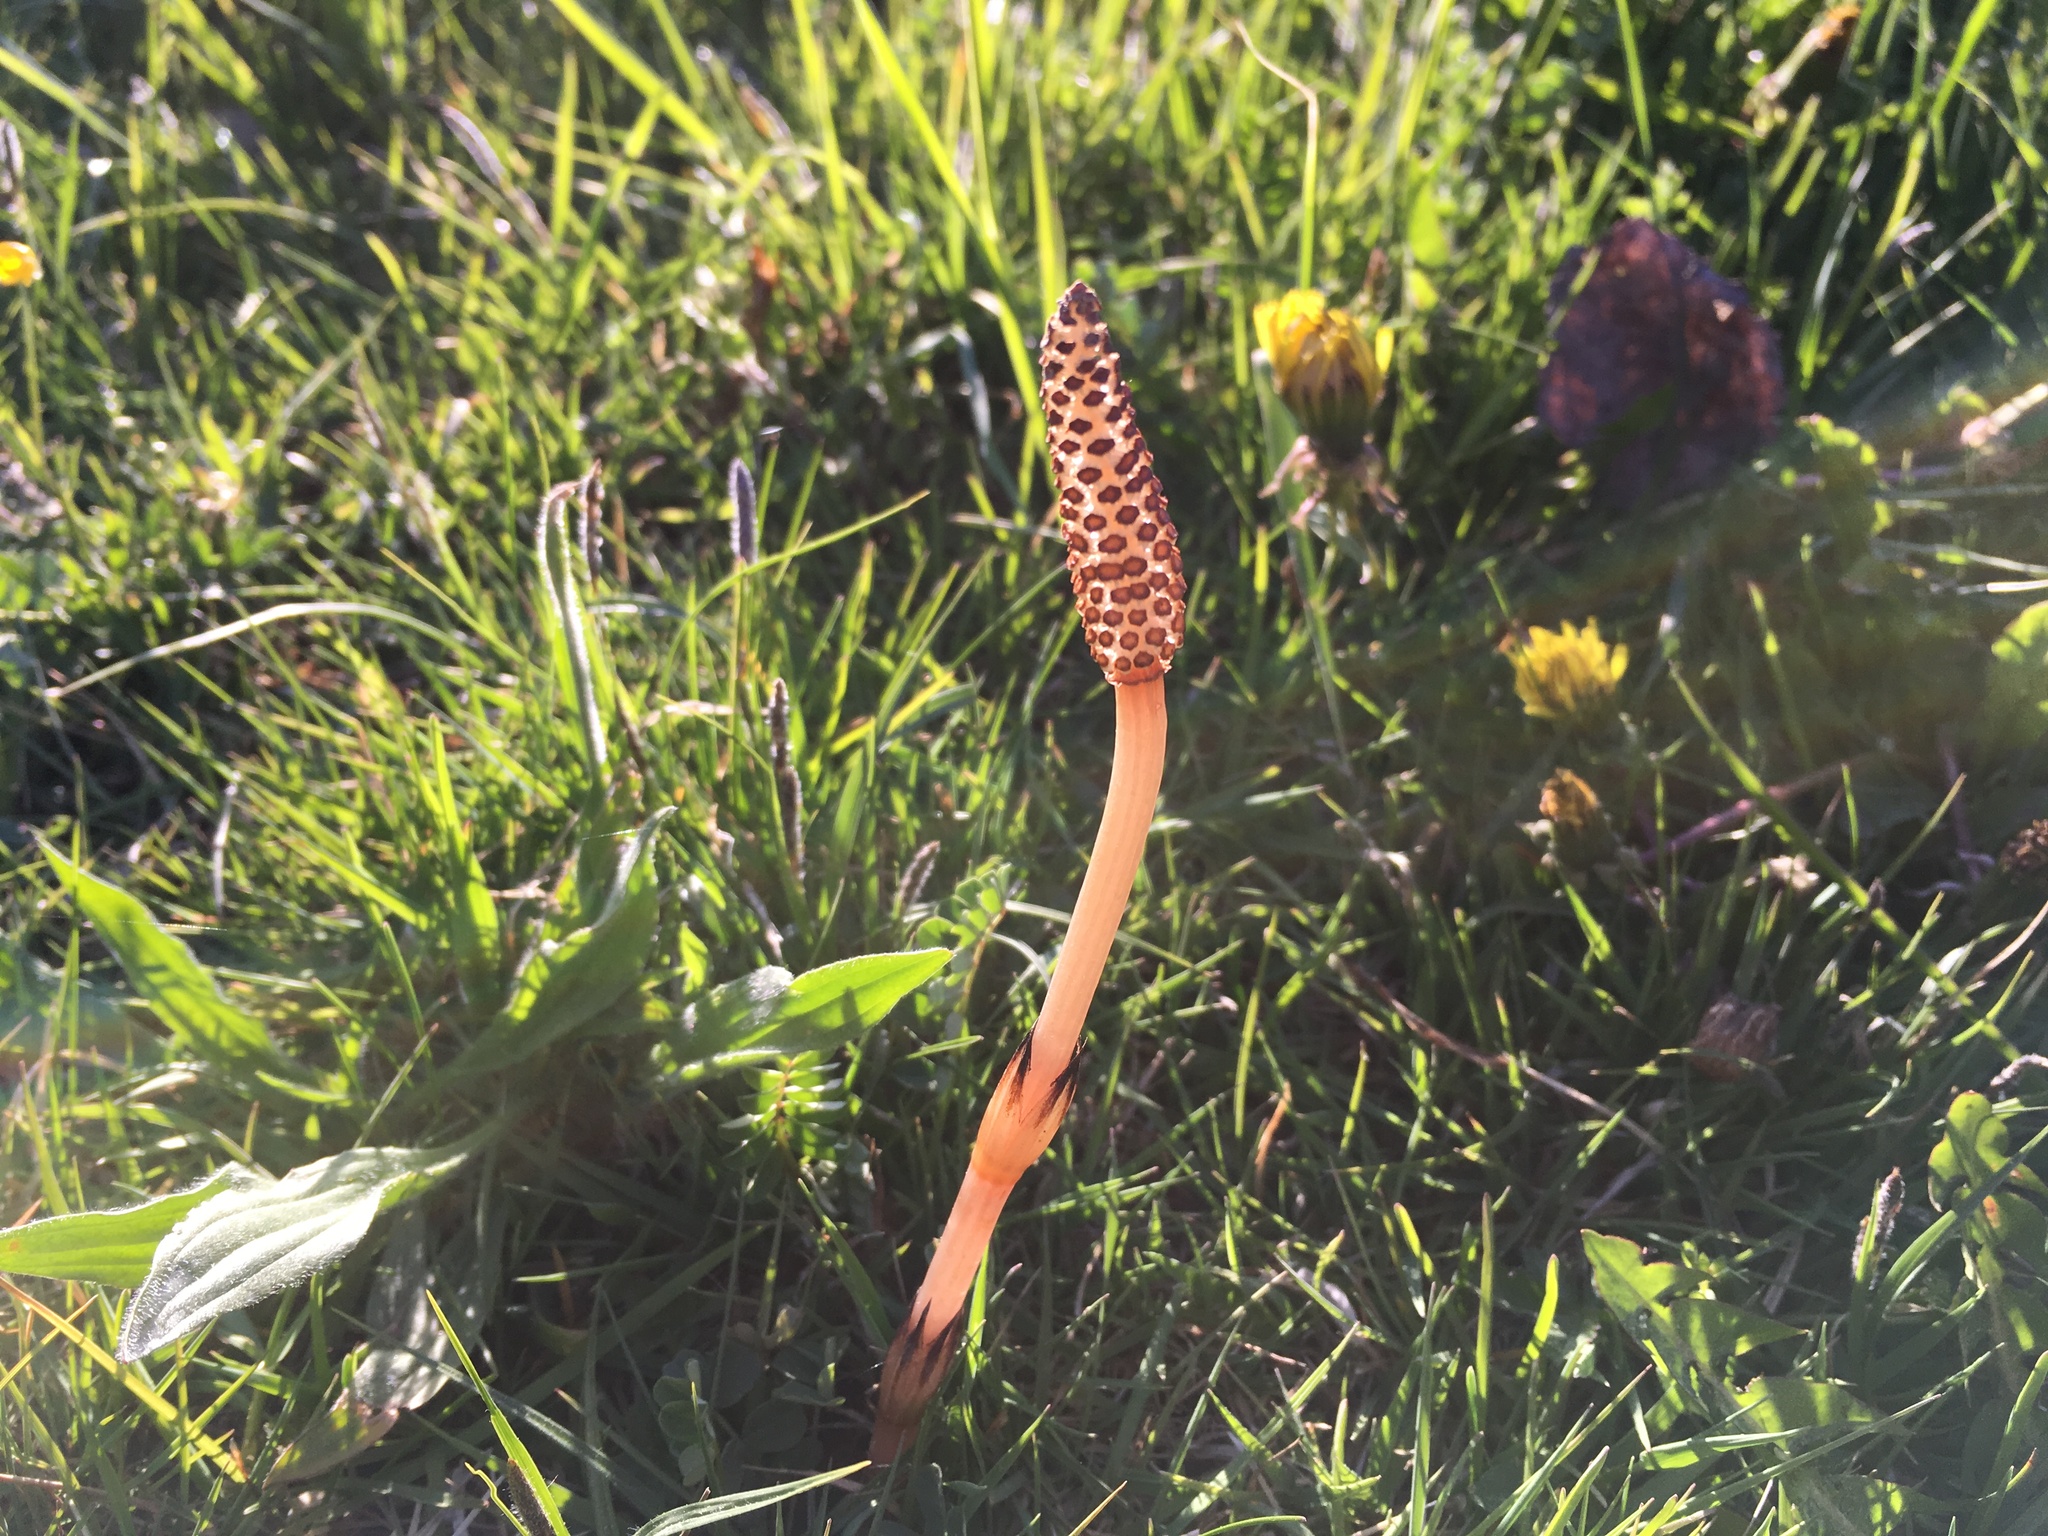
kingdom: Plantae
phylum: Tracheophyta
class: Polypodiopsida
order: Equisetales
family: Equisetaceae
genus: Equisetum
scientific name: Equisetum arvense
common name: Field horsetail
